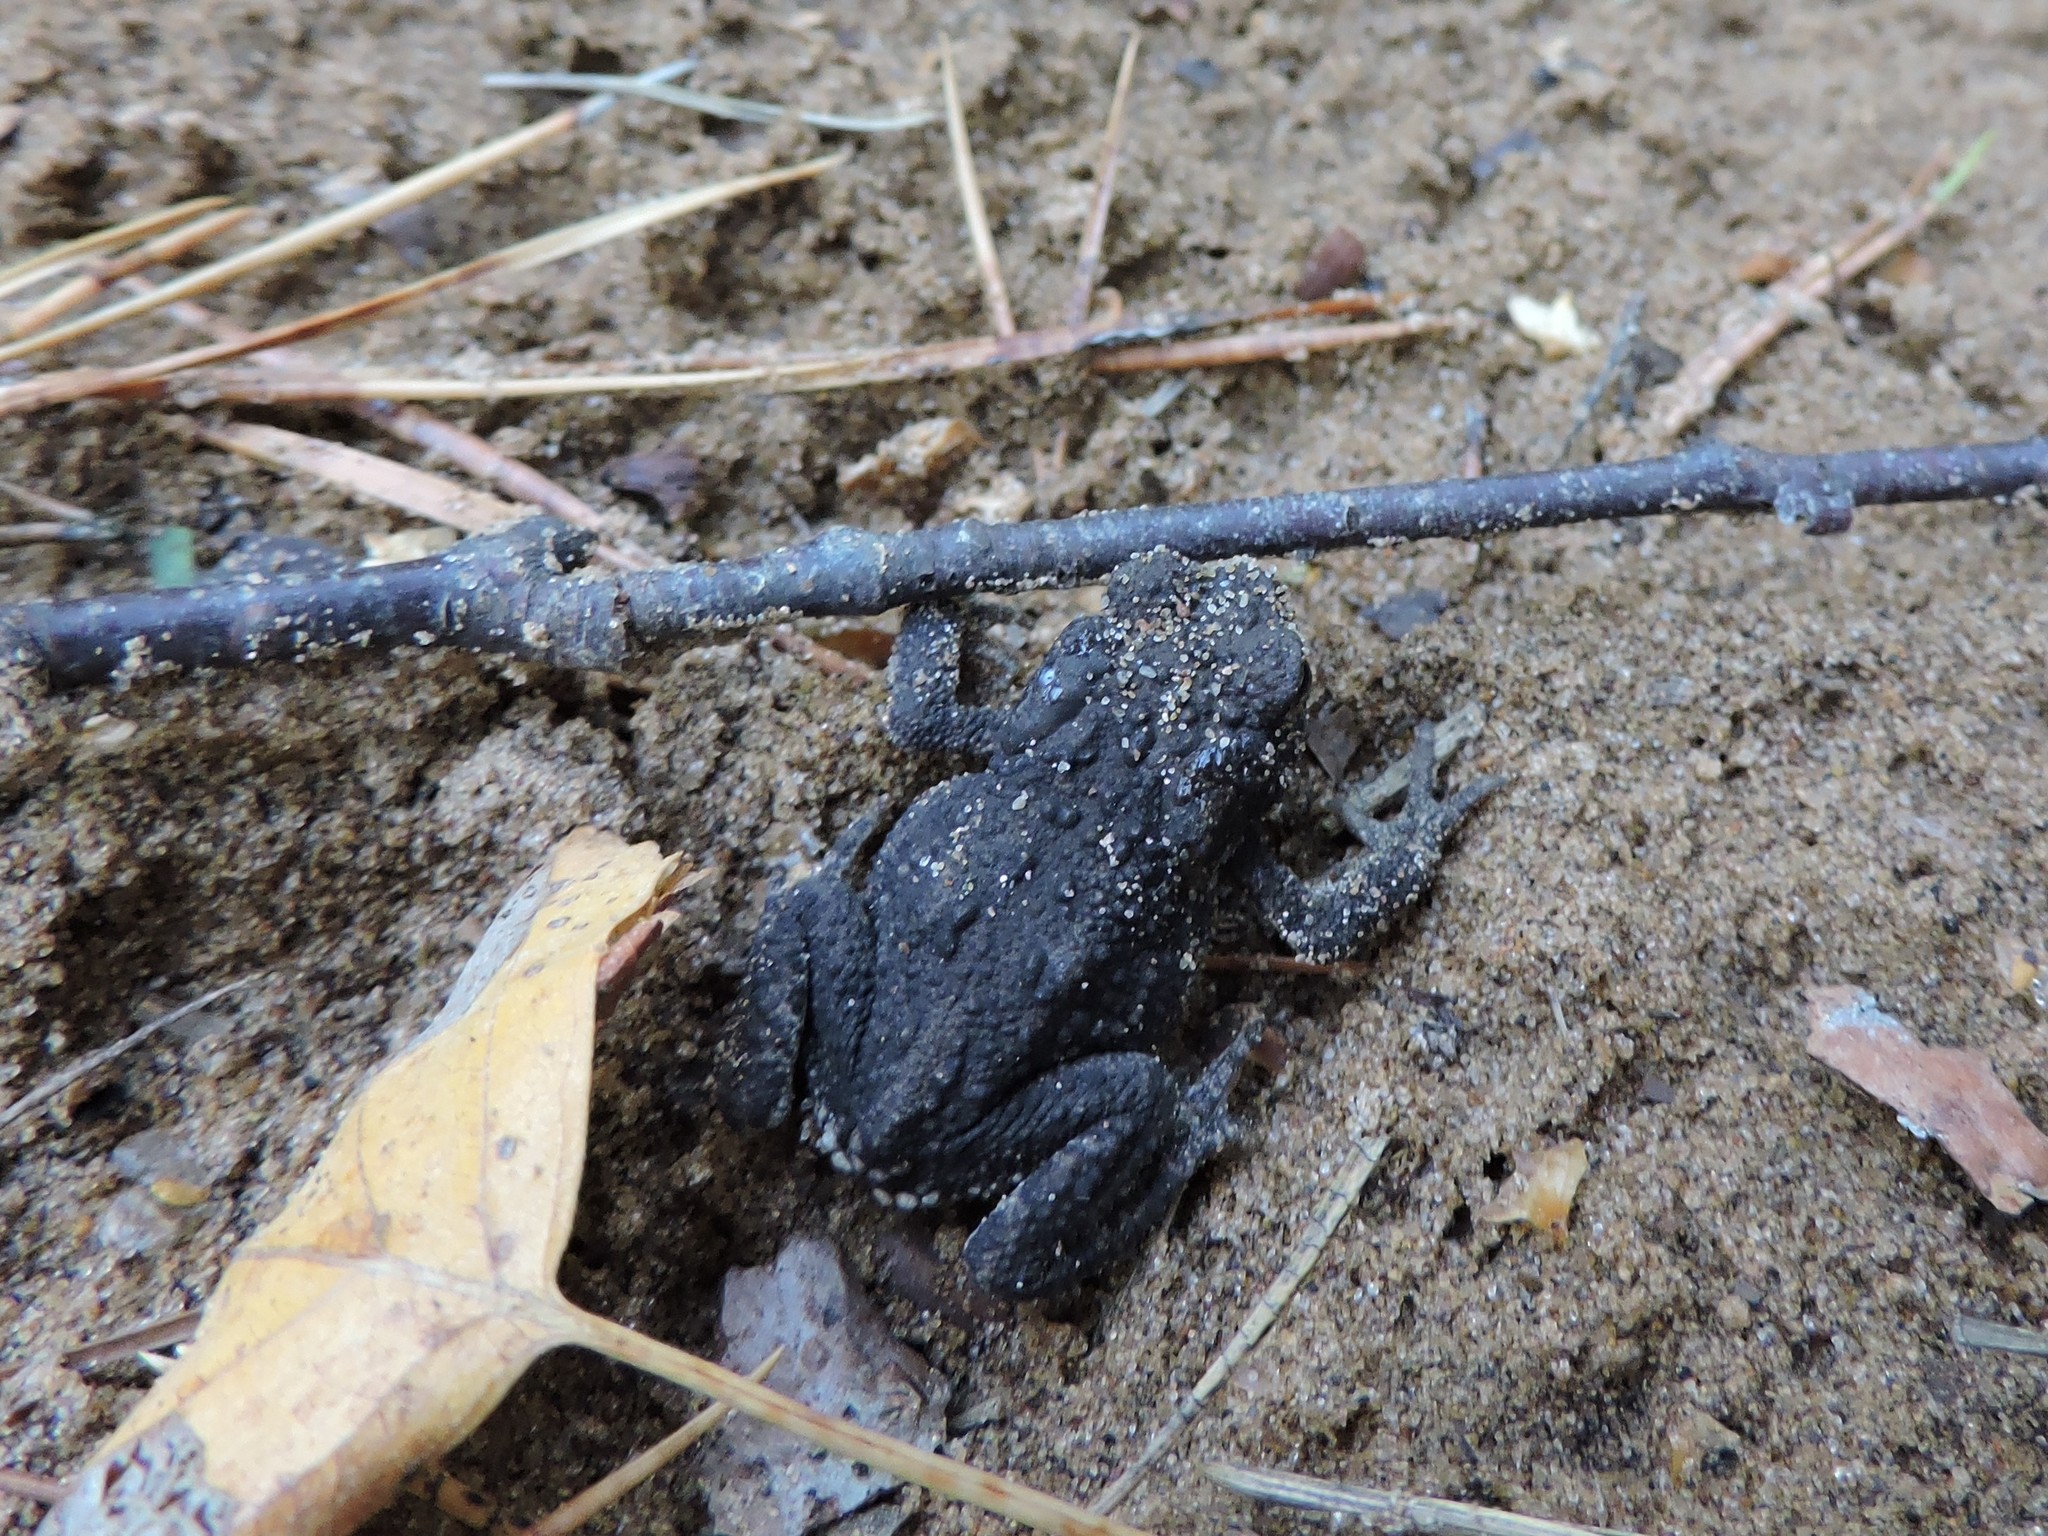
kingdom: Animalia
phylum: Chordata
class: Amphibia
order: Anura
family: Bufonidae
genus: Bufo
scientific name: Bufo bufo
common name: Common toad
